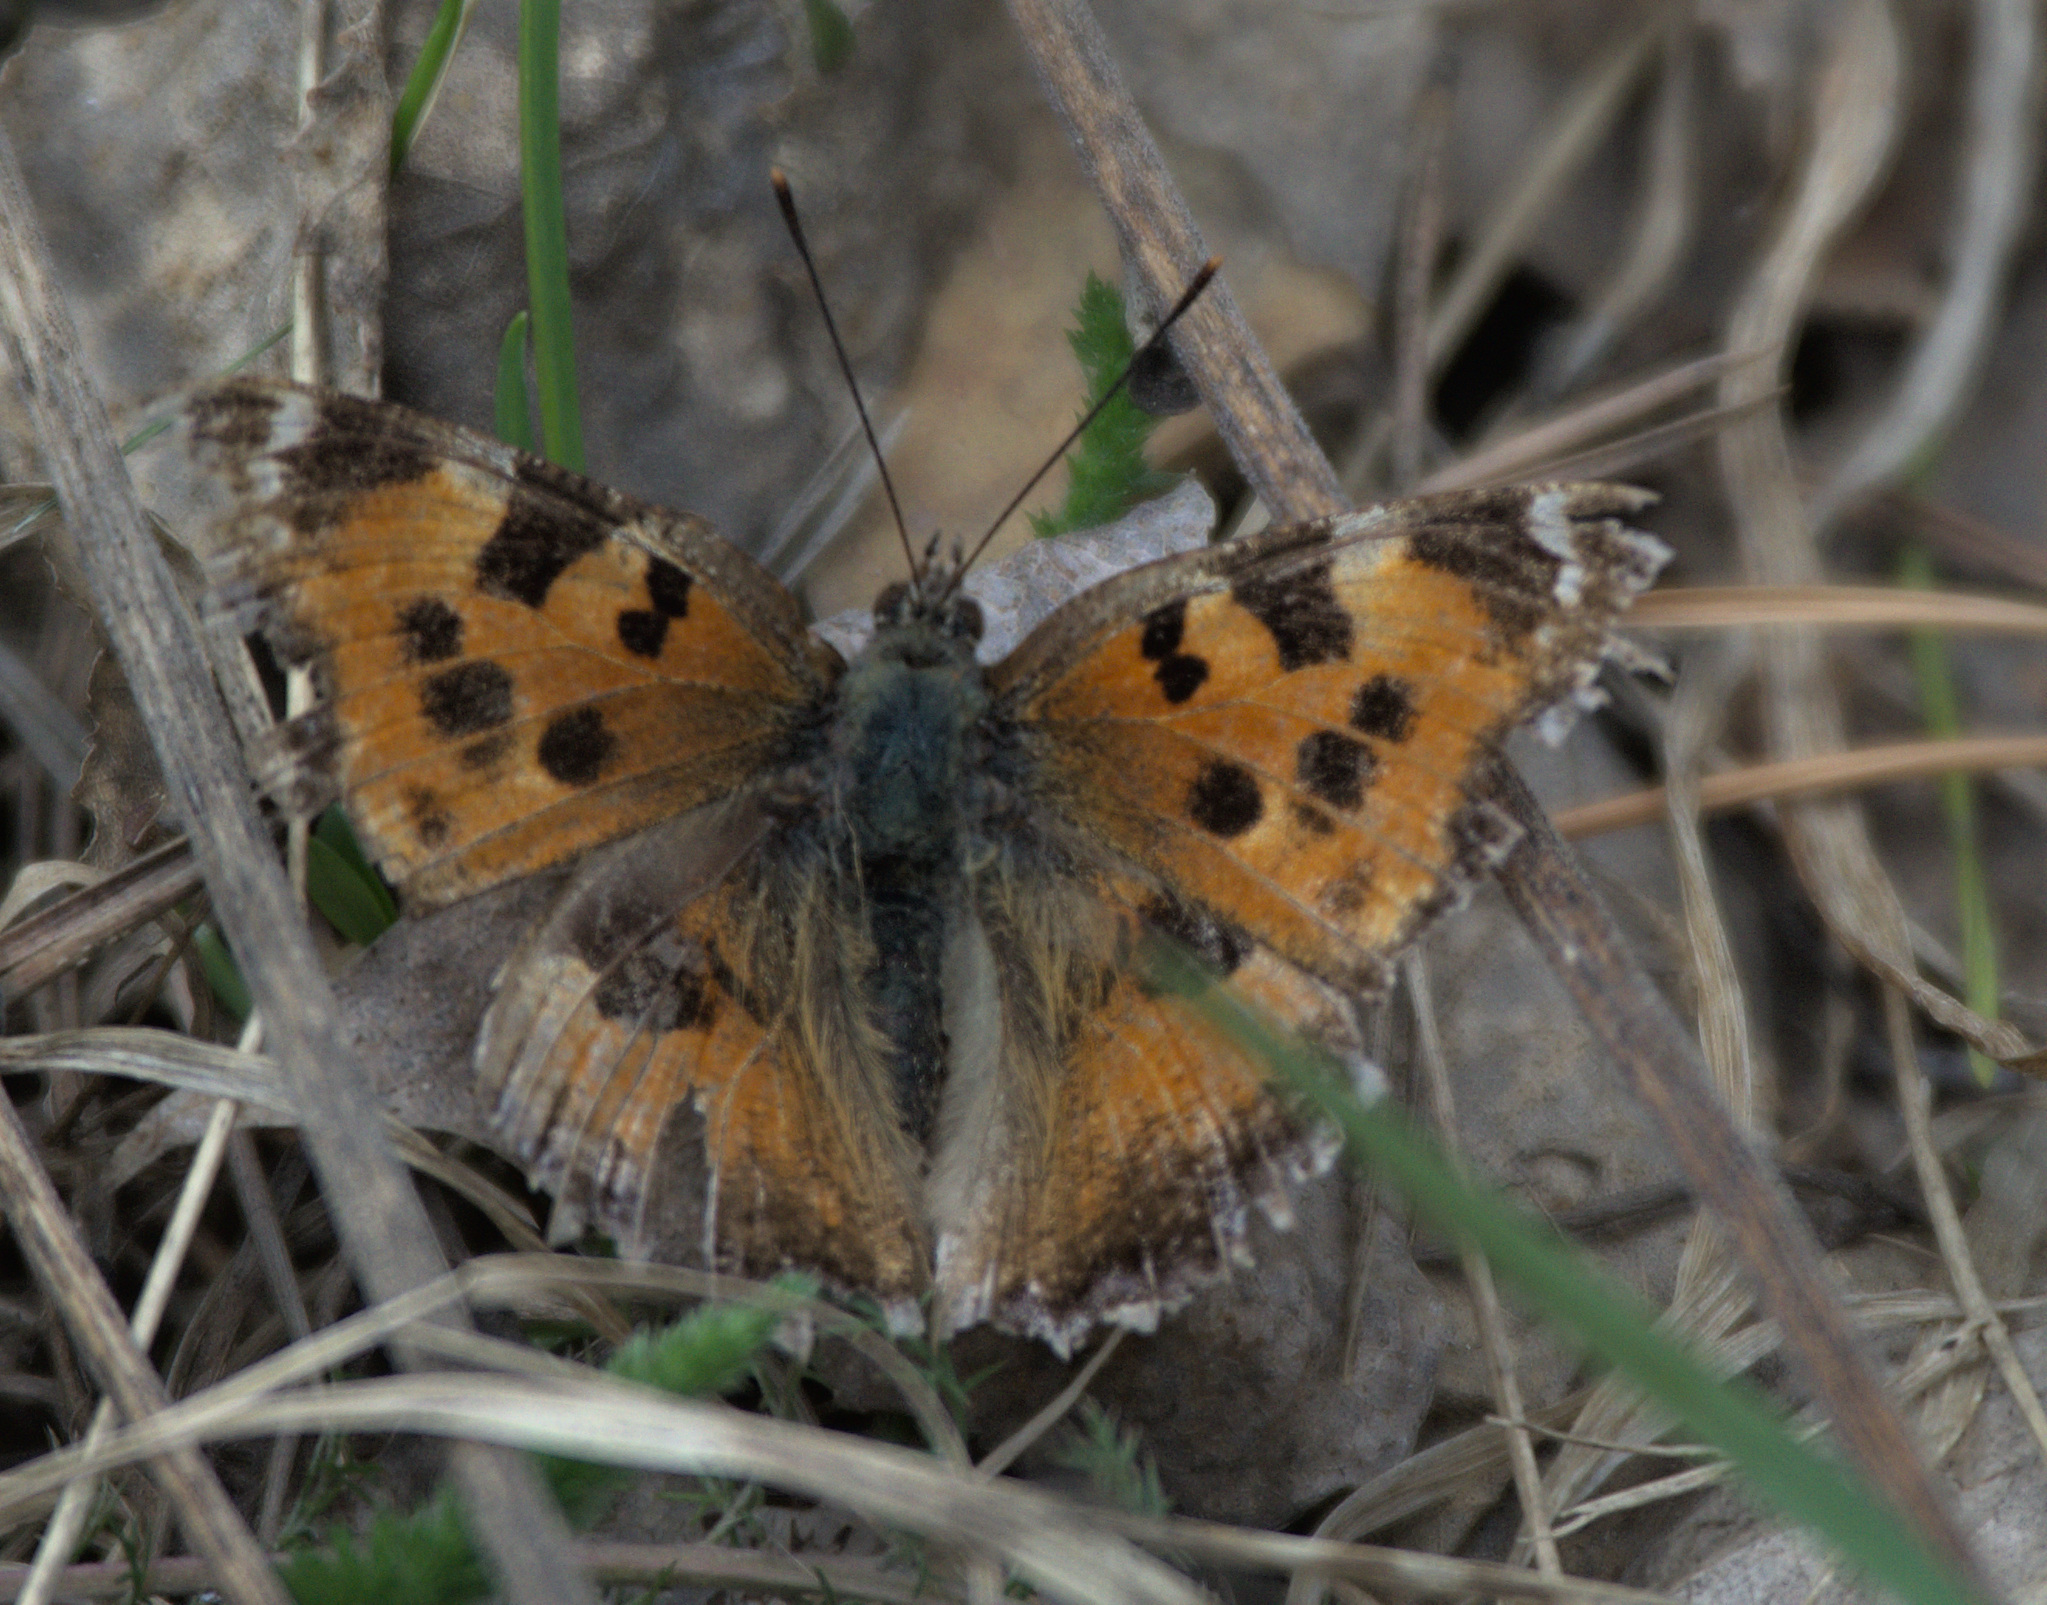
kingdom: Animalia
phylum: Arthropoda
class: Insecta
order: Lepidoptera
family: Nymphalidae
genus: Nymphalis
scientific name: Nymphalis xanthomelas
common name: Scarce tortoiseshell
